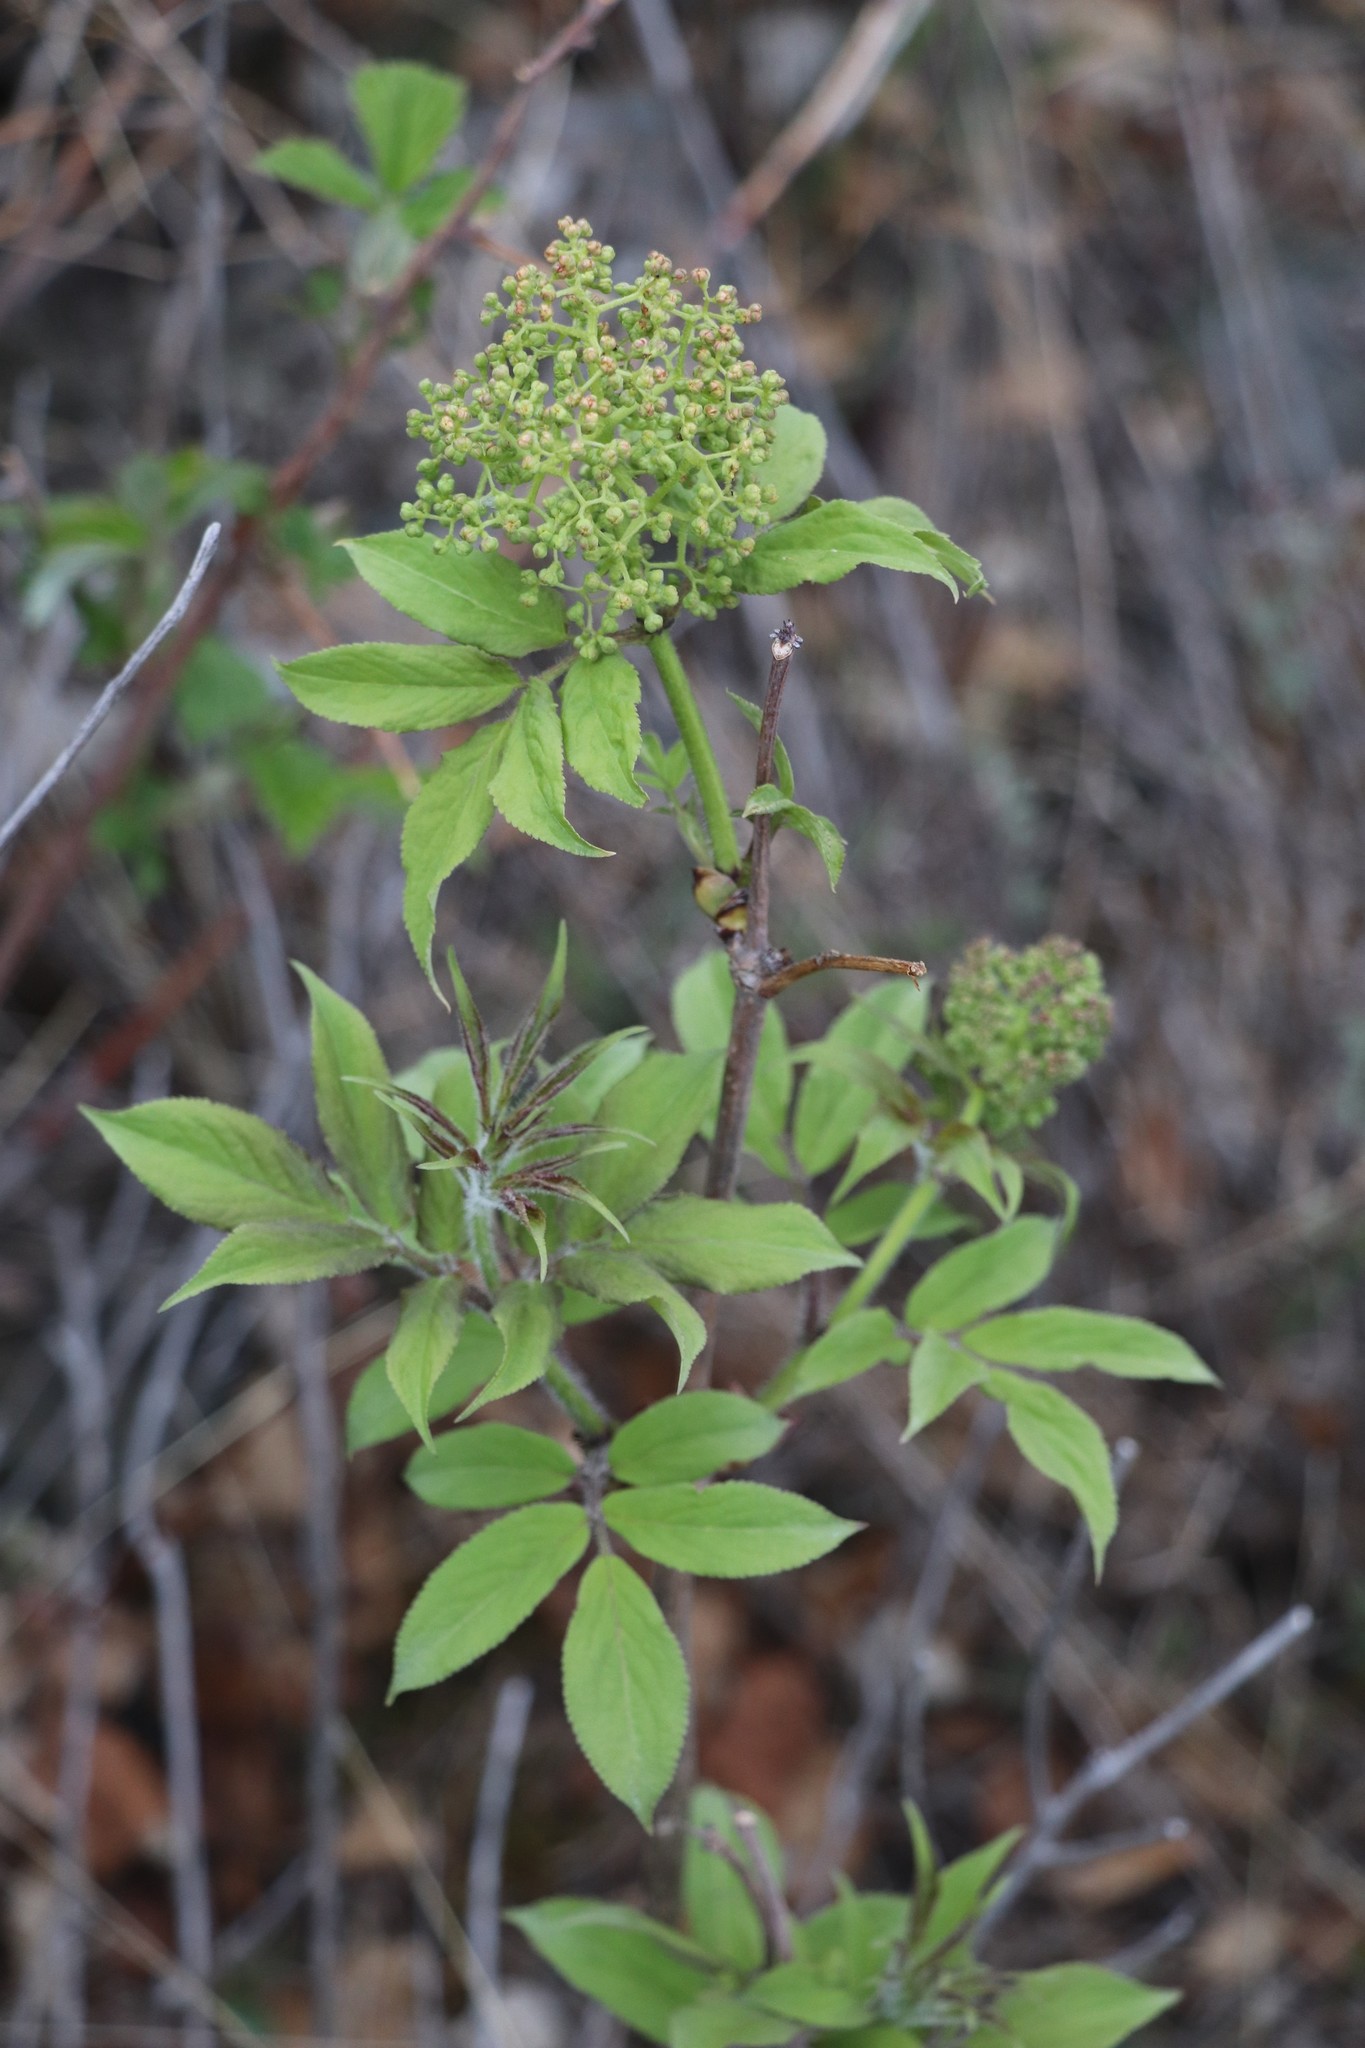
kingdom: Plantae
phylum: Tracheophyta
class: Magnoliopsida
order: Dipsacales
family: Viburnaceae
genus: Sambucus
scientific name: Sambucus sibirica
